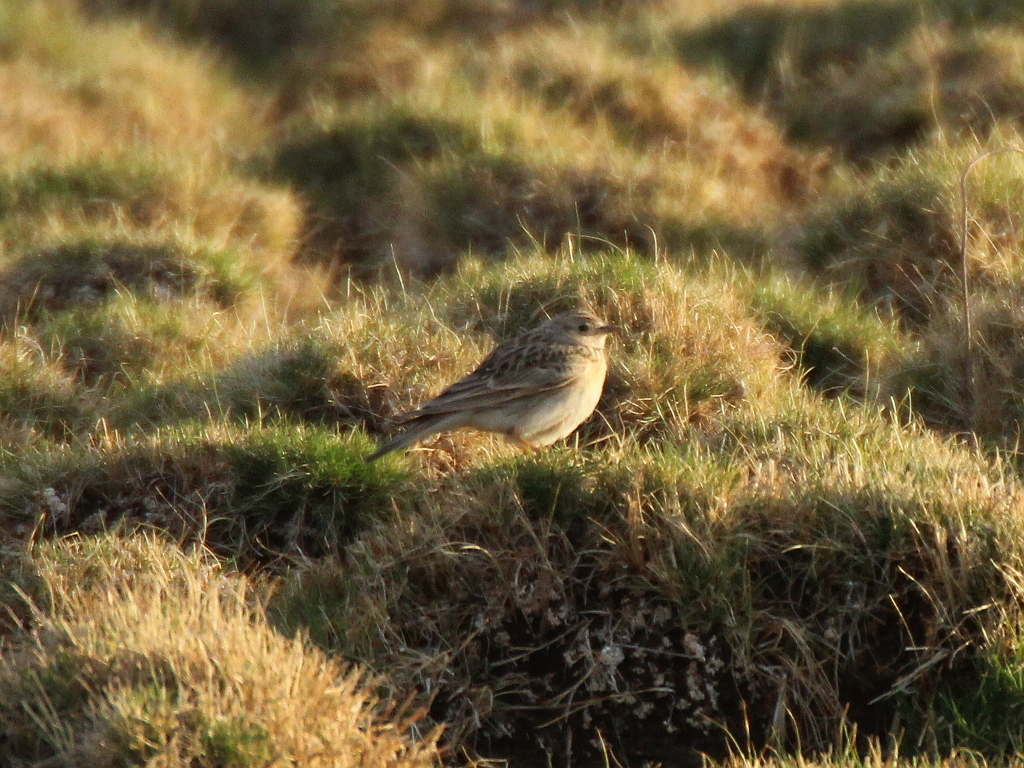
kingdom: Animalia
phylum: Chordata
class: Aves
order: Passeriformes
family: Alaudidae
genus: Alauda
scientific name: Alauda arvensis
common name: Eurasian skylark
